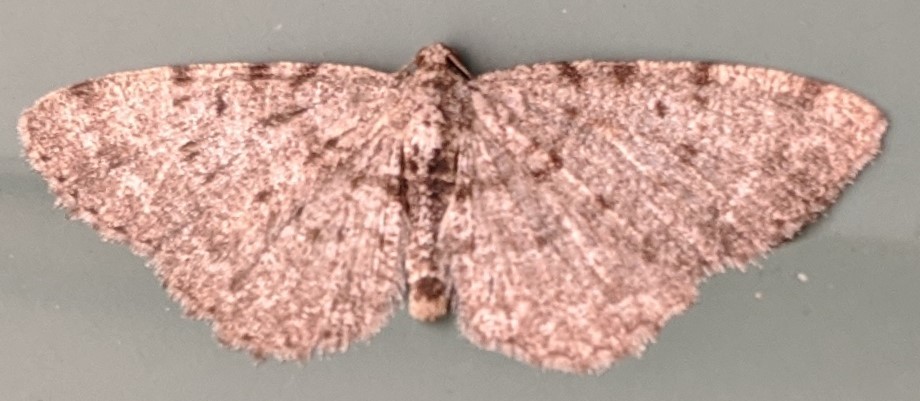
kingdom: Animalia
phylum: Arthropoda
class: Insecta
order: Lepidoptera
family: Geometridae
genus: Aethalura
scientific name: Aethalura intertexta
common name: Four-barred gray
